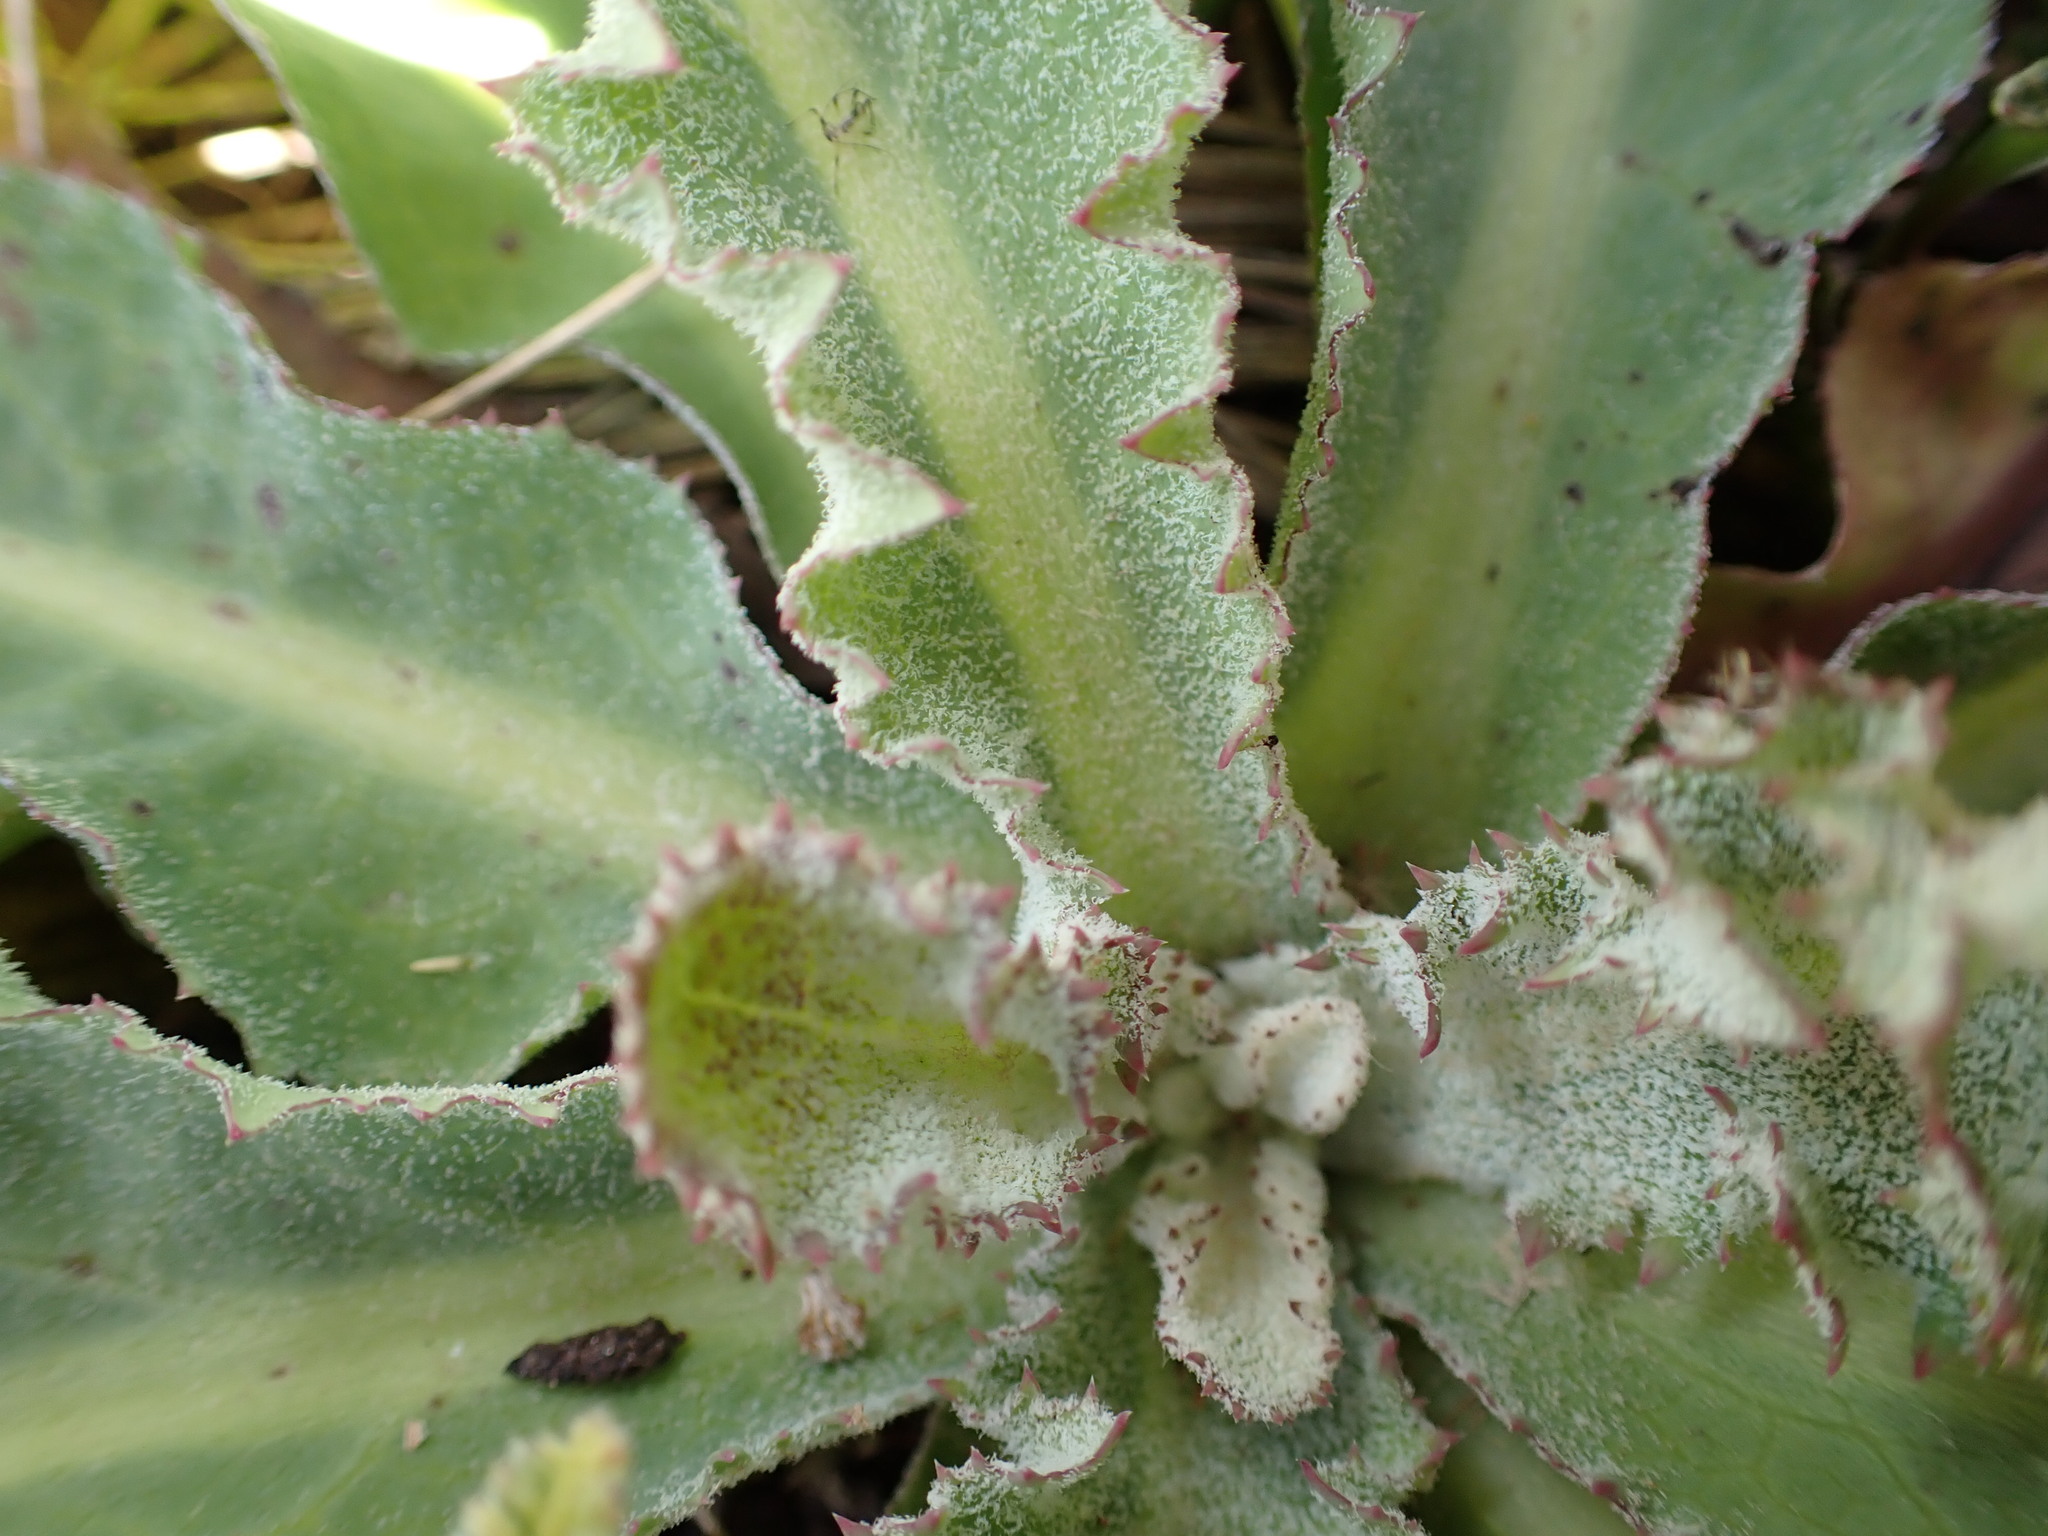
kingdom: Plantae
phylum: Tracheophyta
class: Magnoliopsida
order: Asterales
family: Asteraceae
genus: Sonchus
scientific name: Sonchus kirkii
